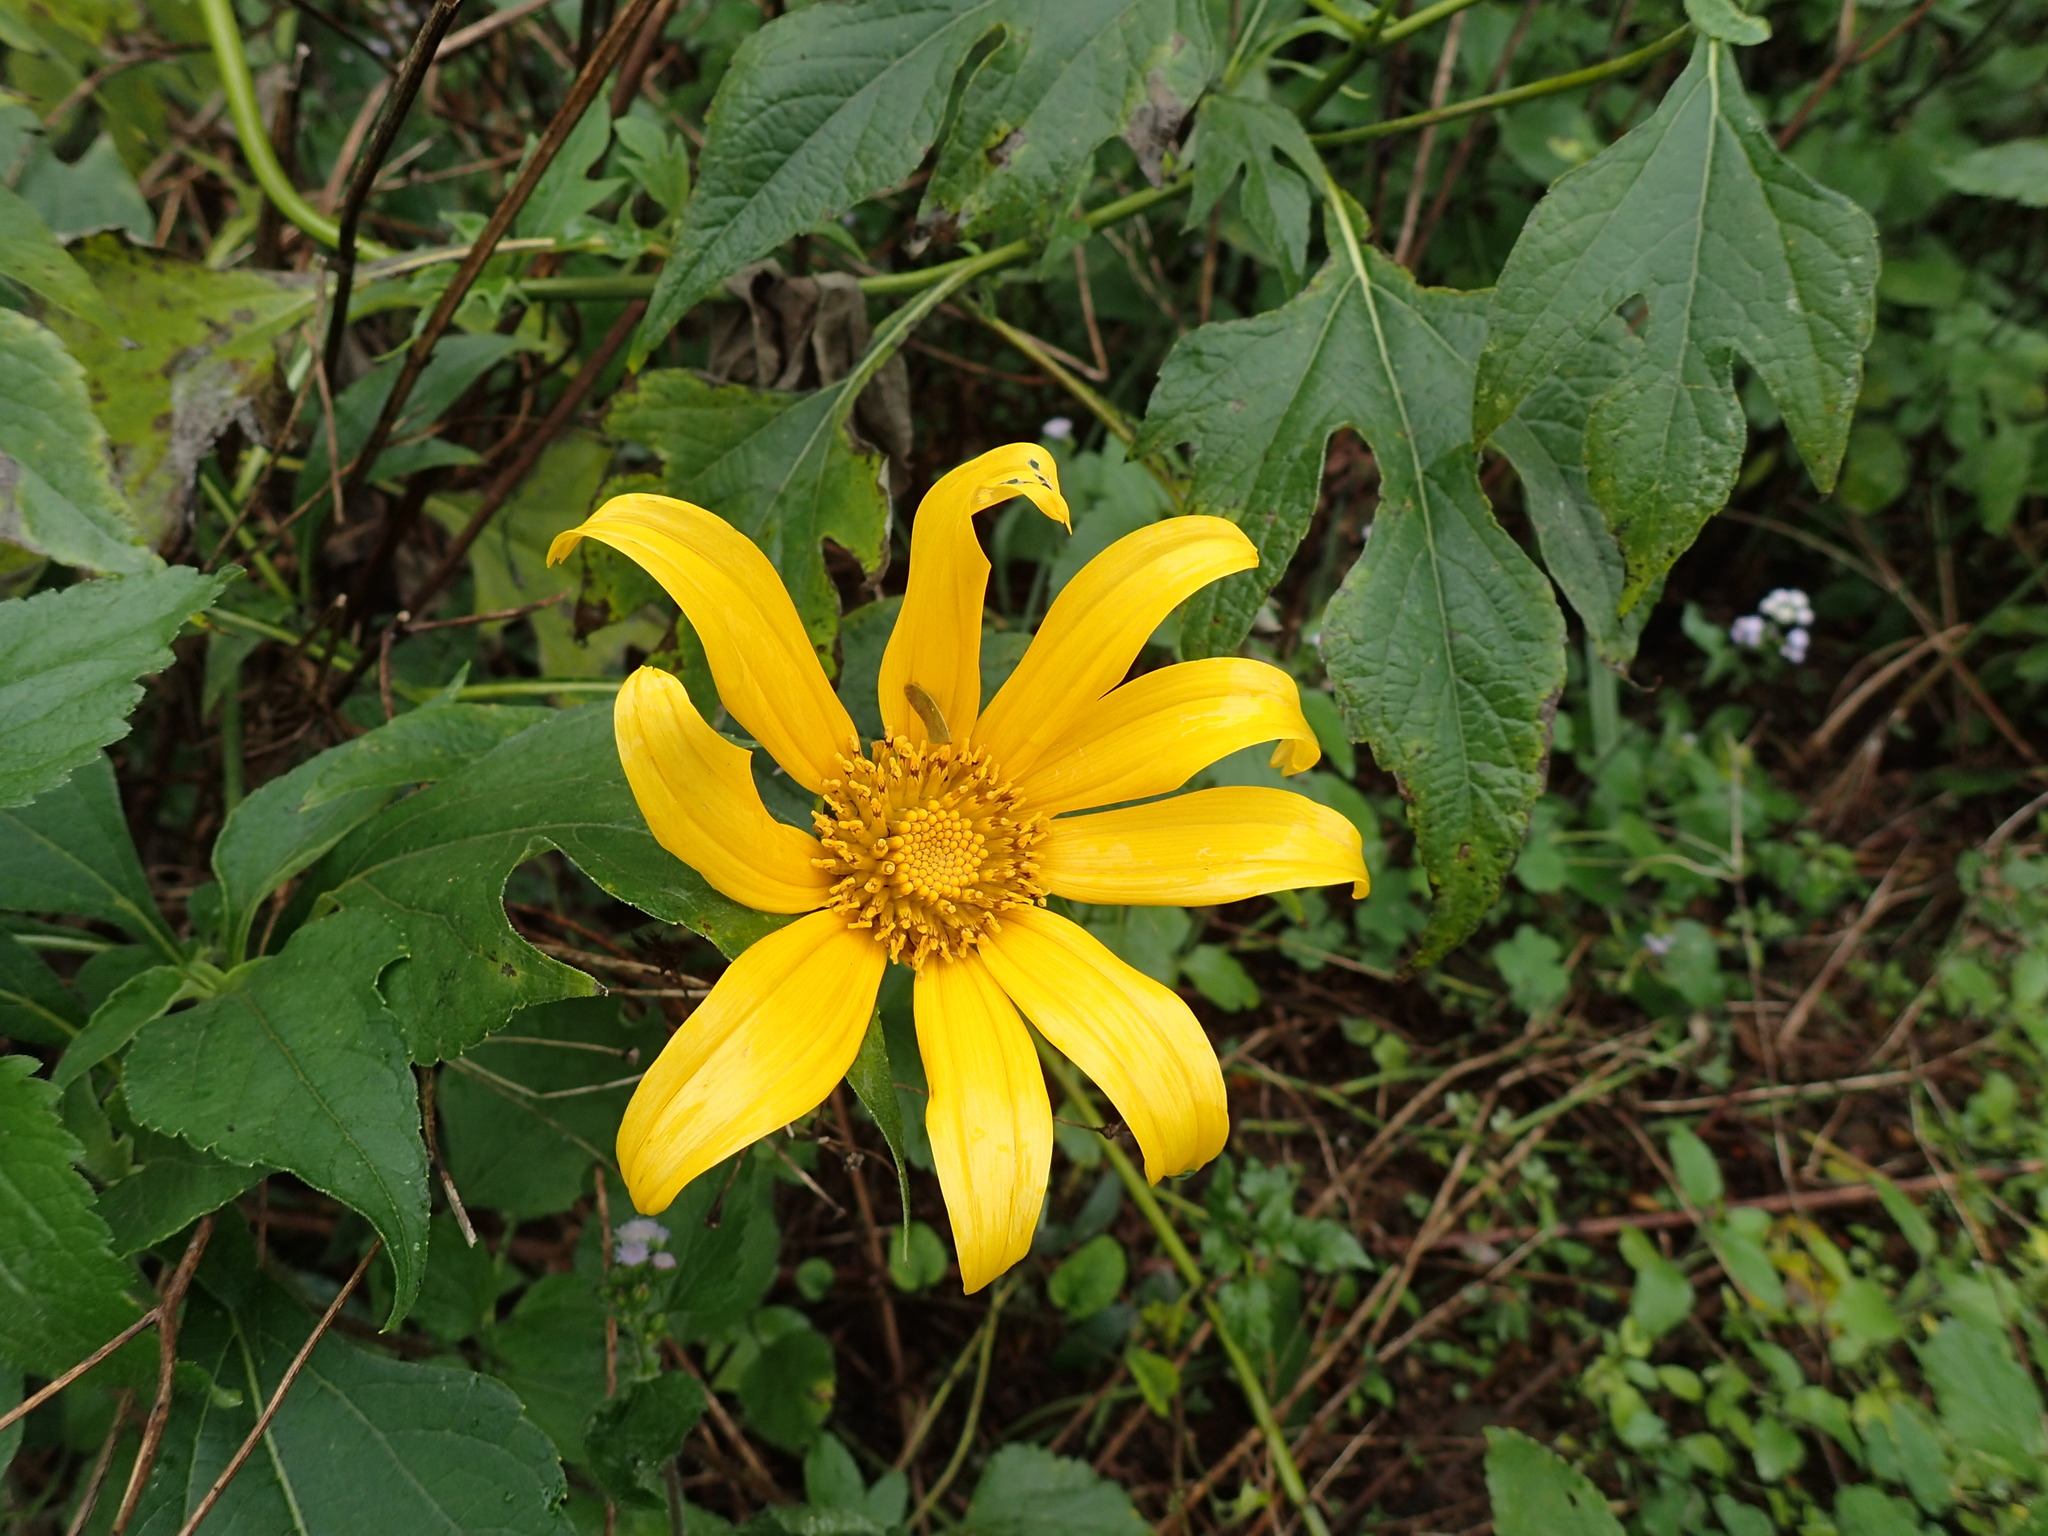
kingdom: Plantae
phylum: Tracheophyta
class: Magnoliopsida
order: Asterales
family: Asteraceae
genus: Tithonia
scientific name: Tithonia diversifolia
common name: Tree marigold
